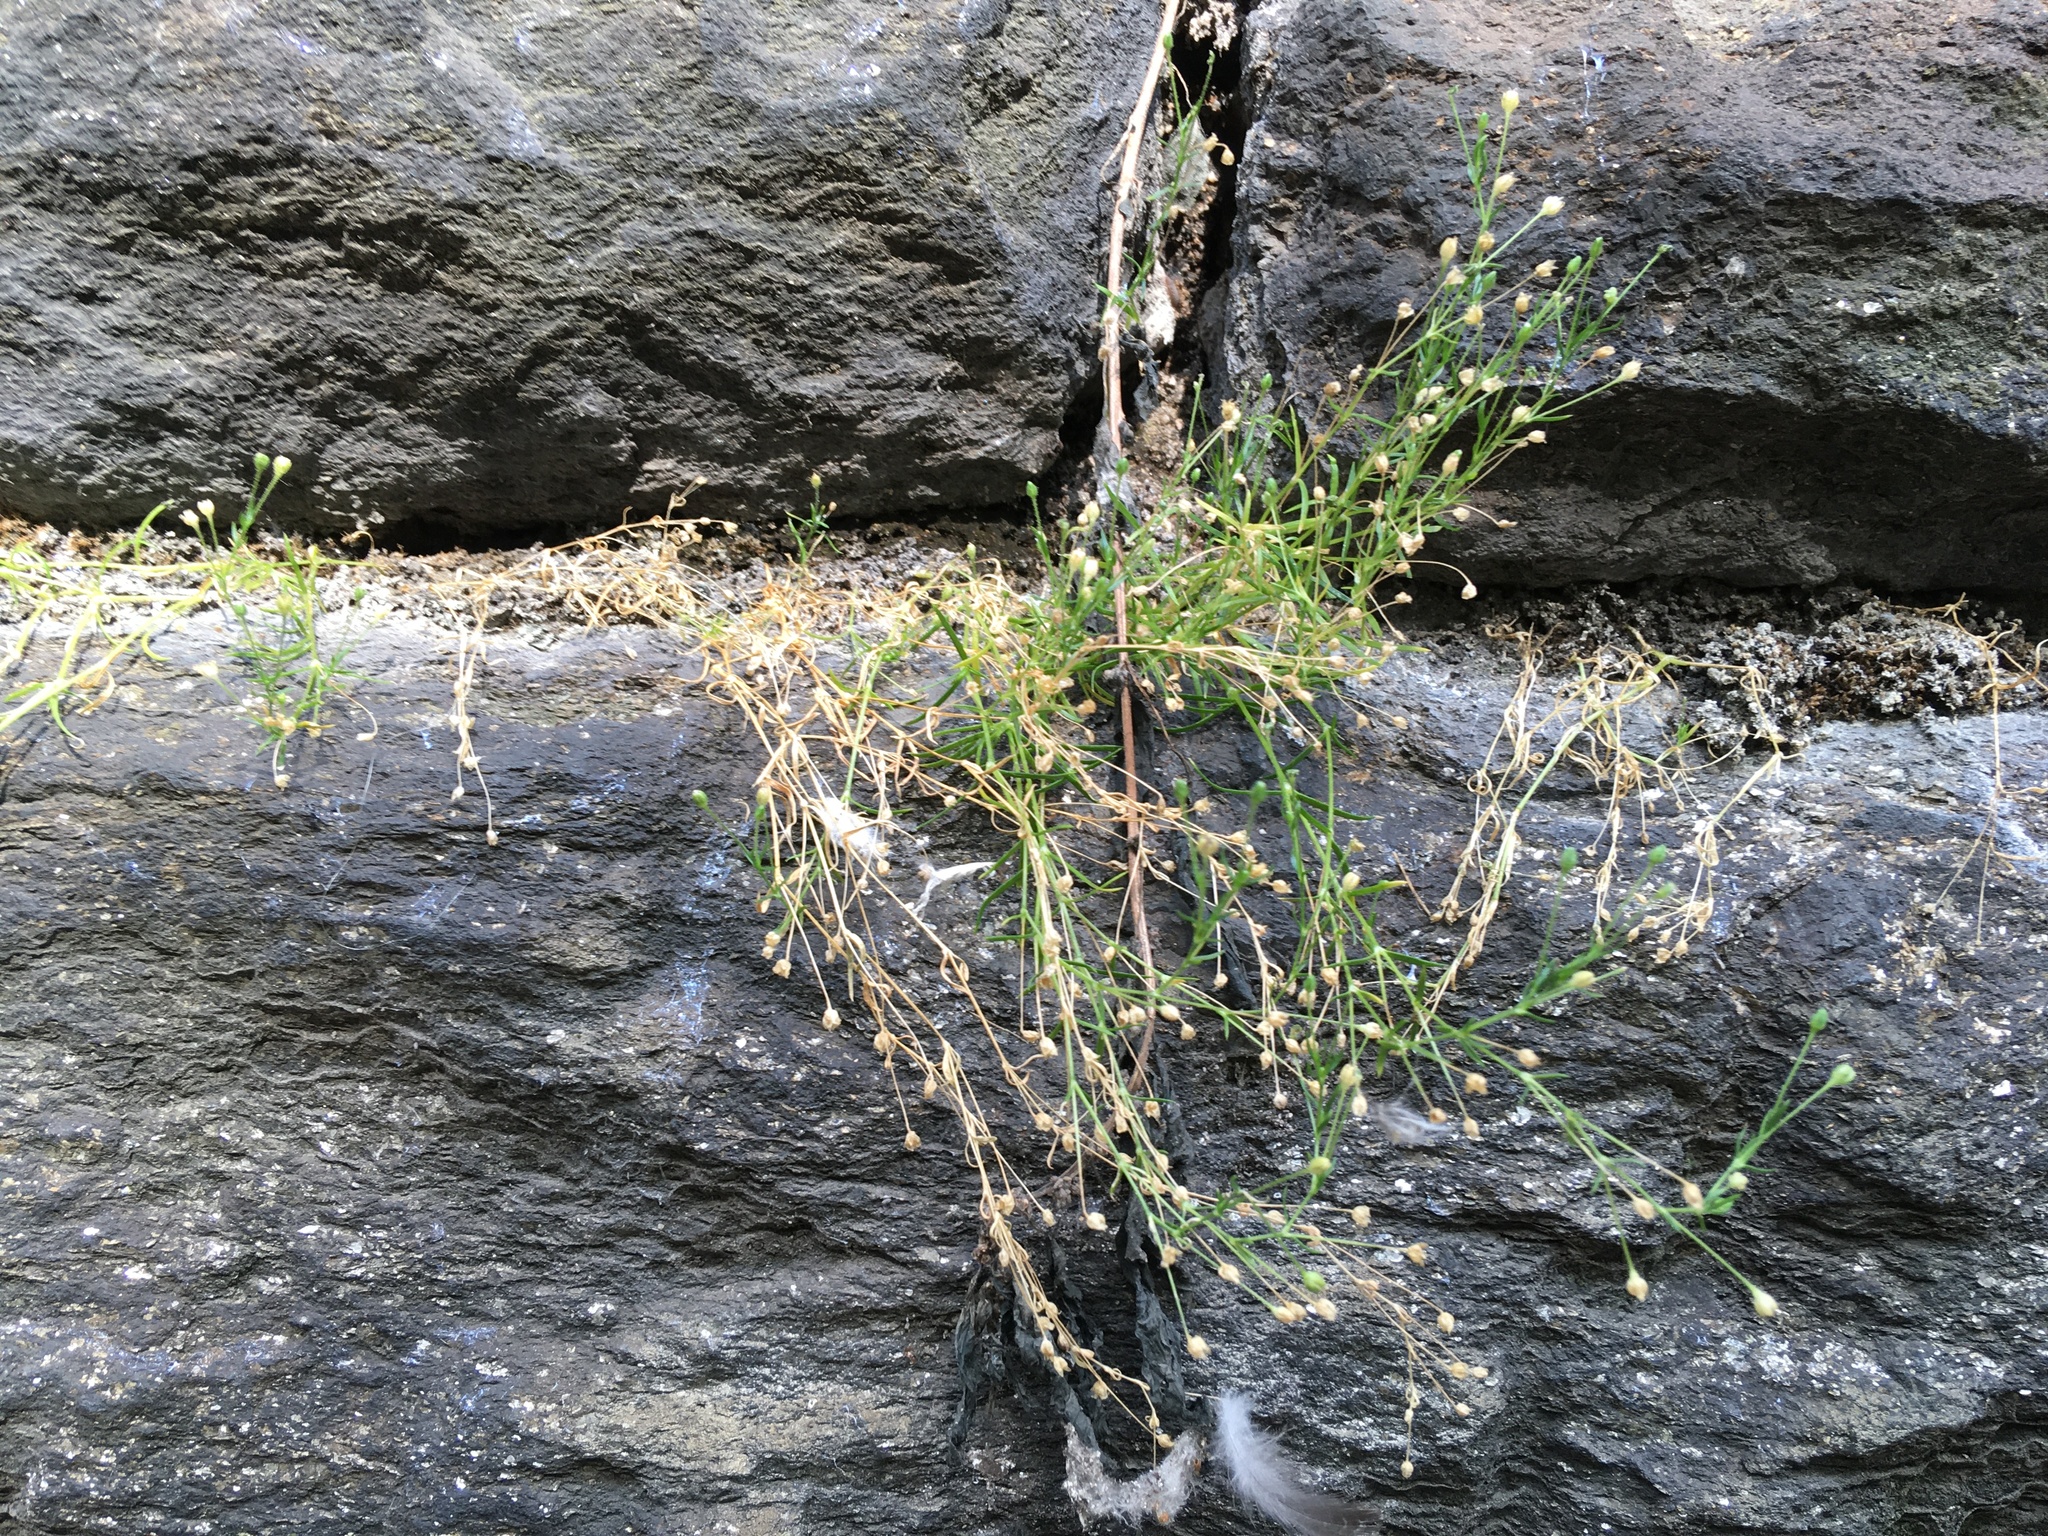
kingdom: Plantae
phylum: Tracheophyta
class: Magnoliopsida
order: Caryophyllales
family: Caryophyllaceae
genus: Sagina
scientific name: Sagina japonica
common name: Japanese pearlwort
